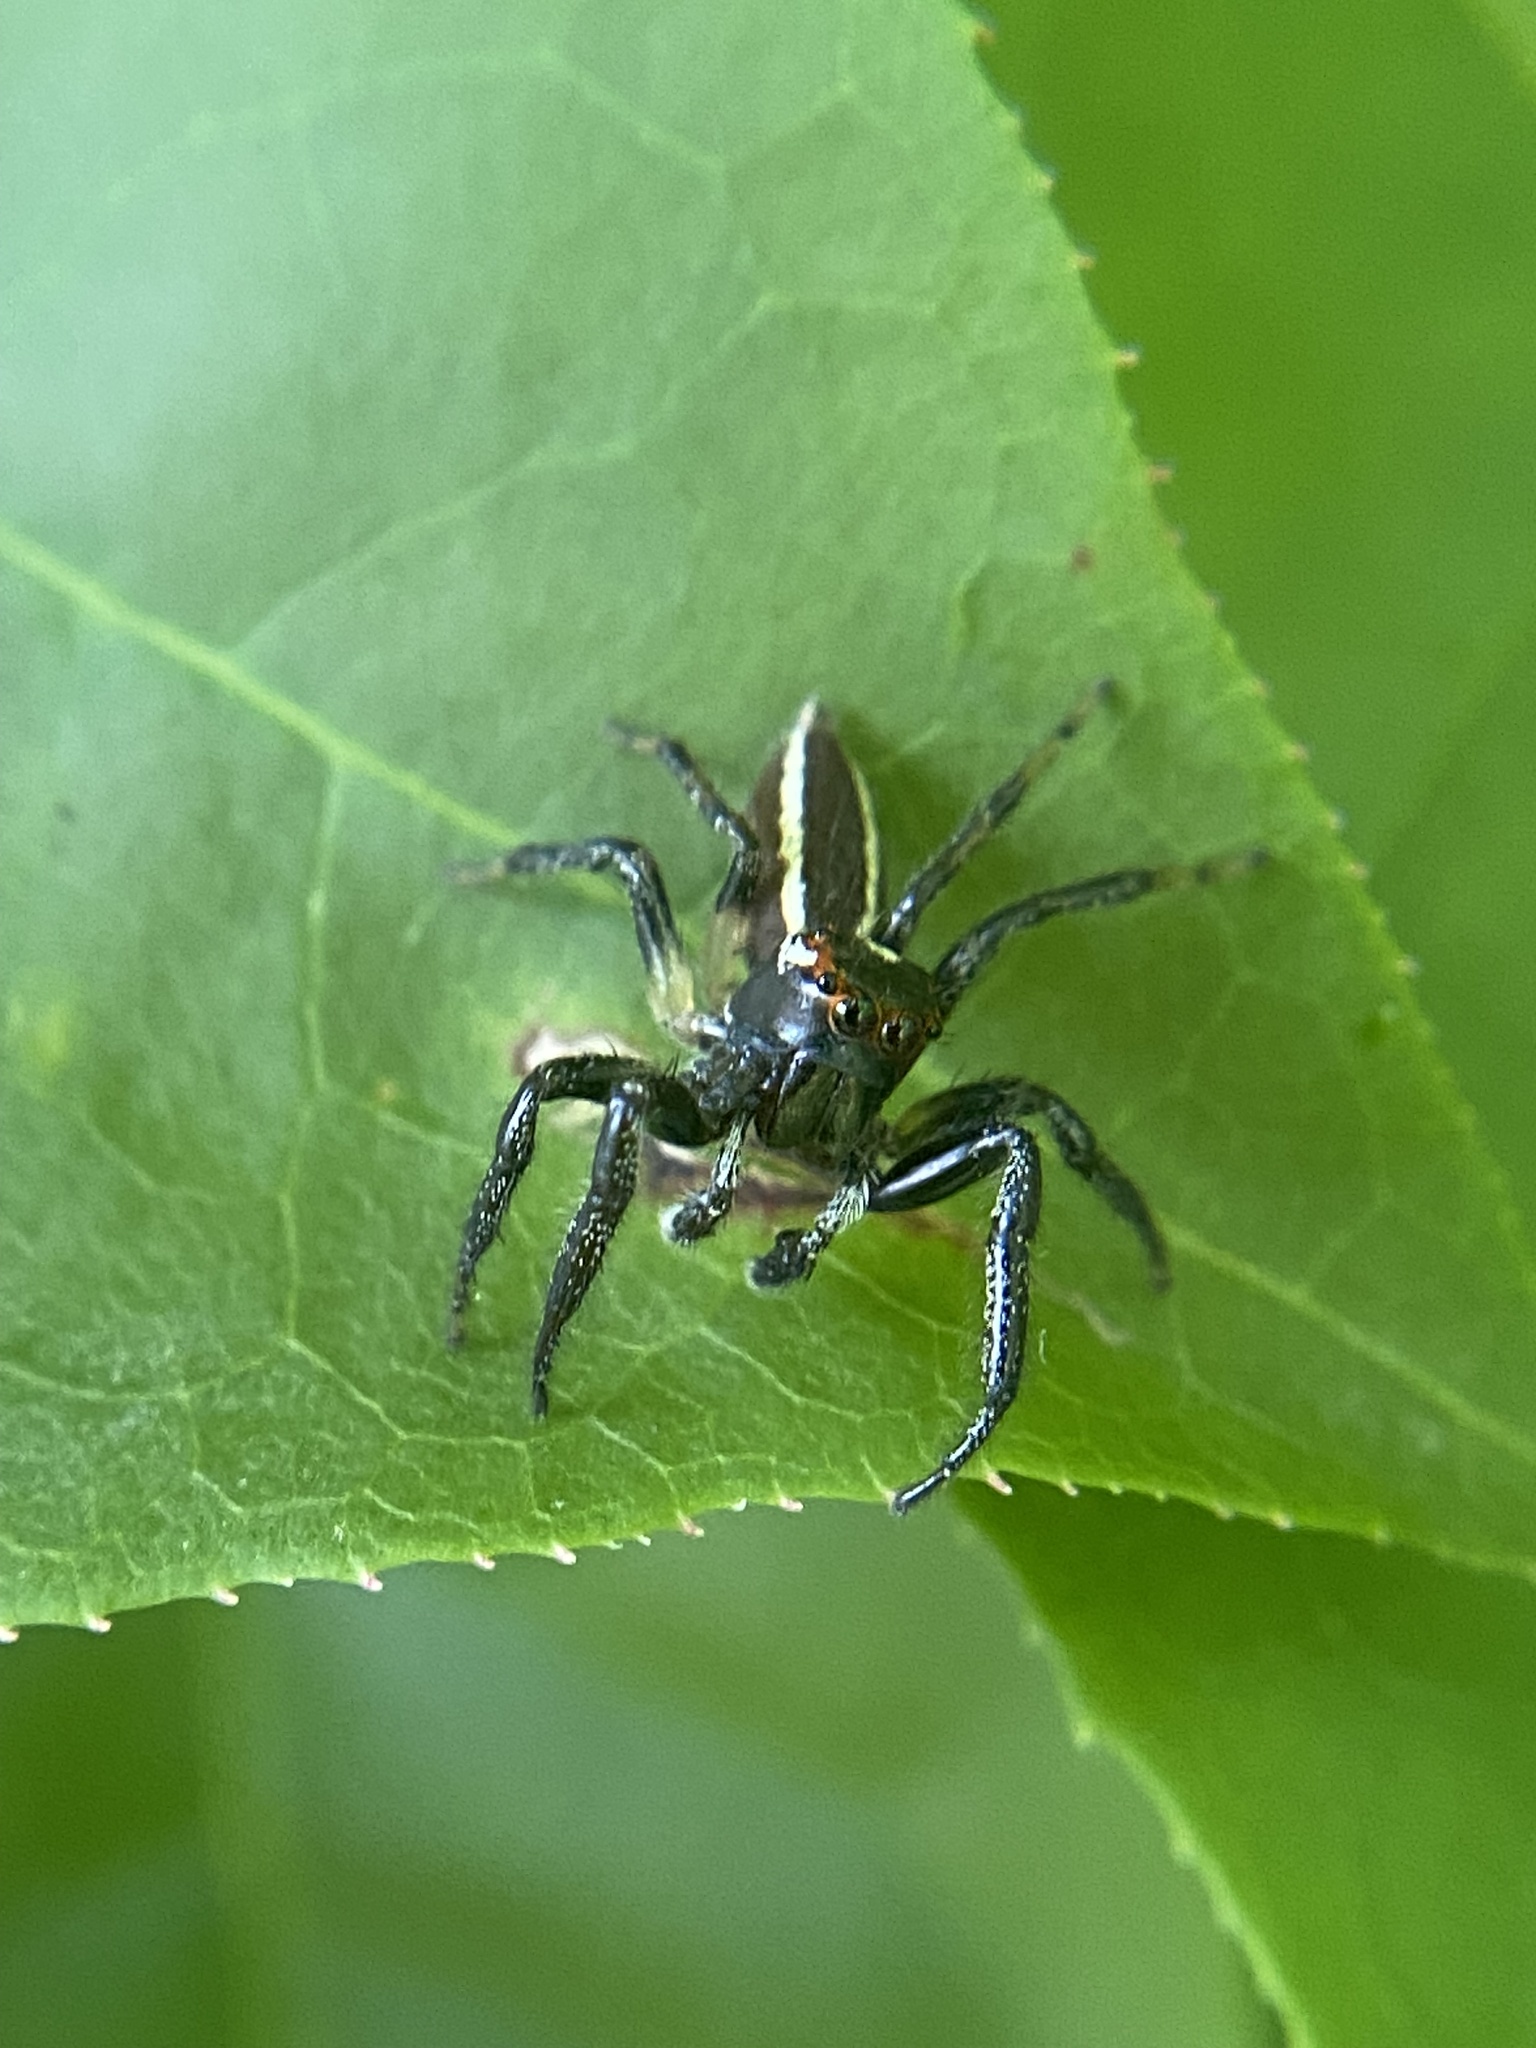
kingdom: Animalia
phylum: Arthropoda
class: Arachnida
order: Araneae
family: Salticidae
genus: Colonus
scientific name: Colonus sylvanus
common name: Jumping spiders
